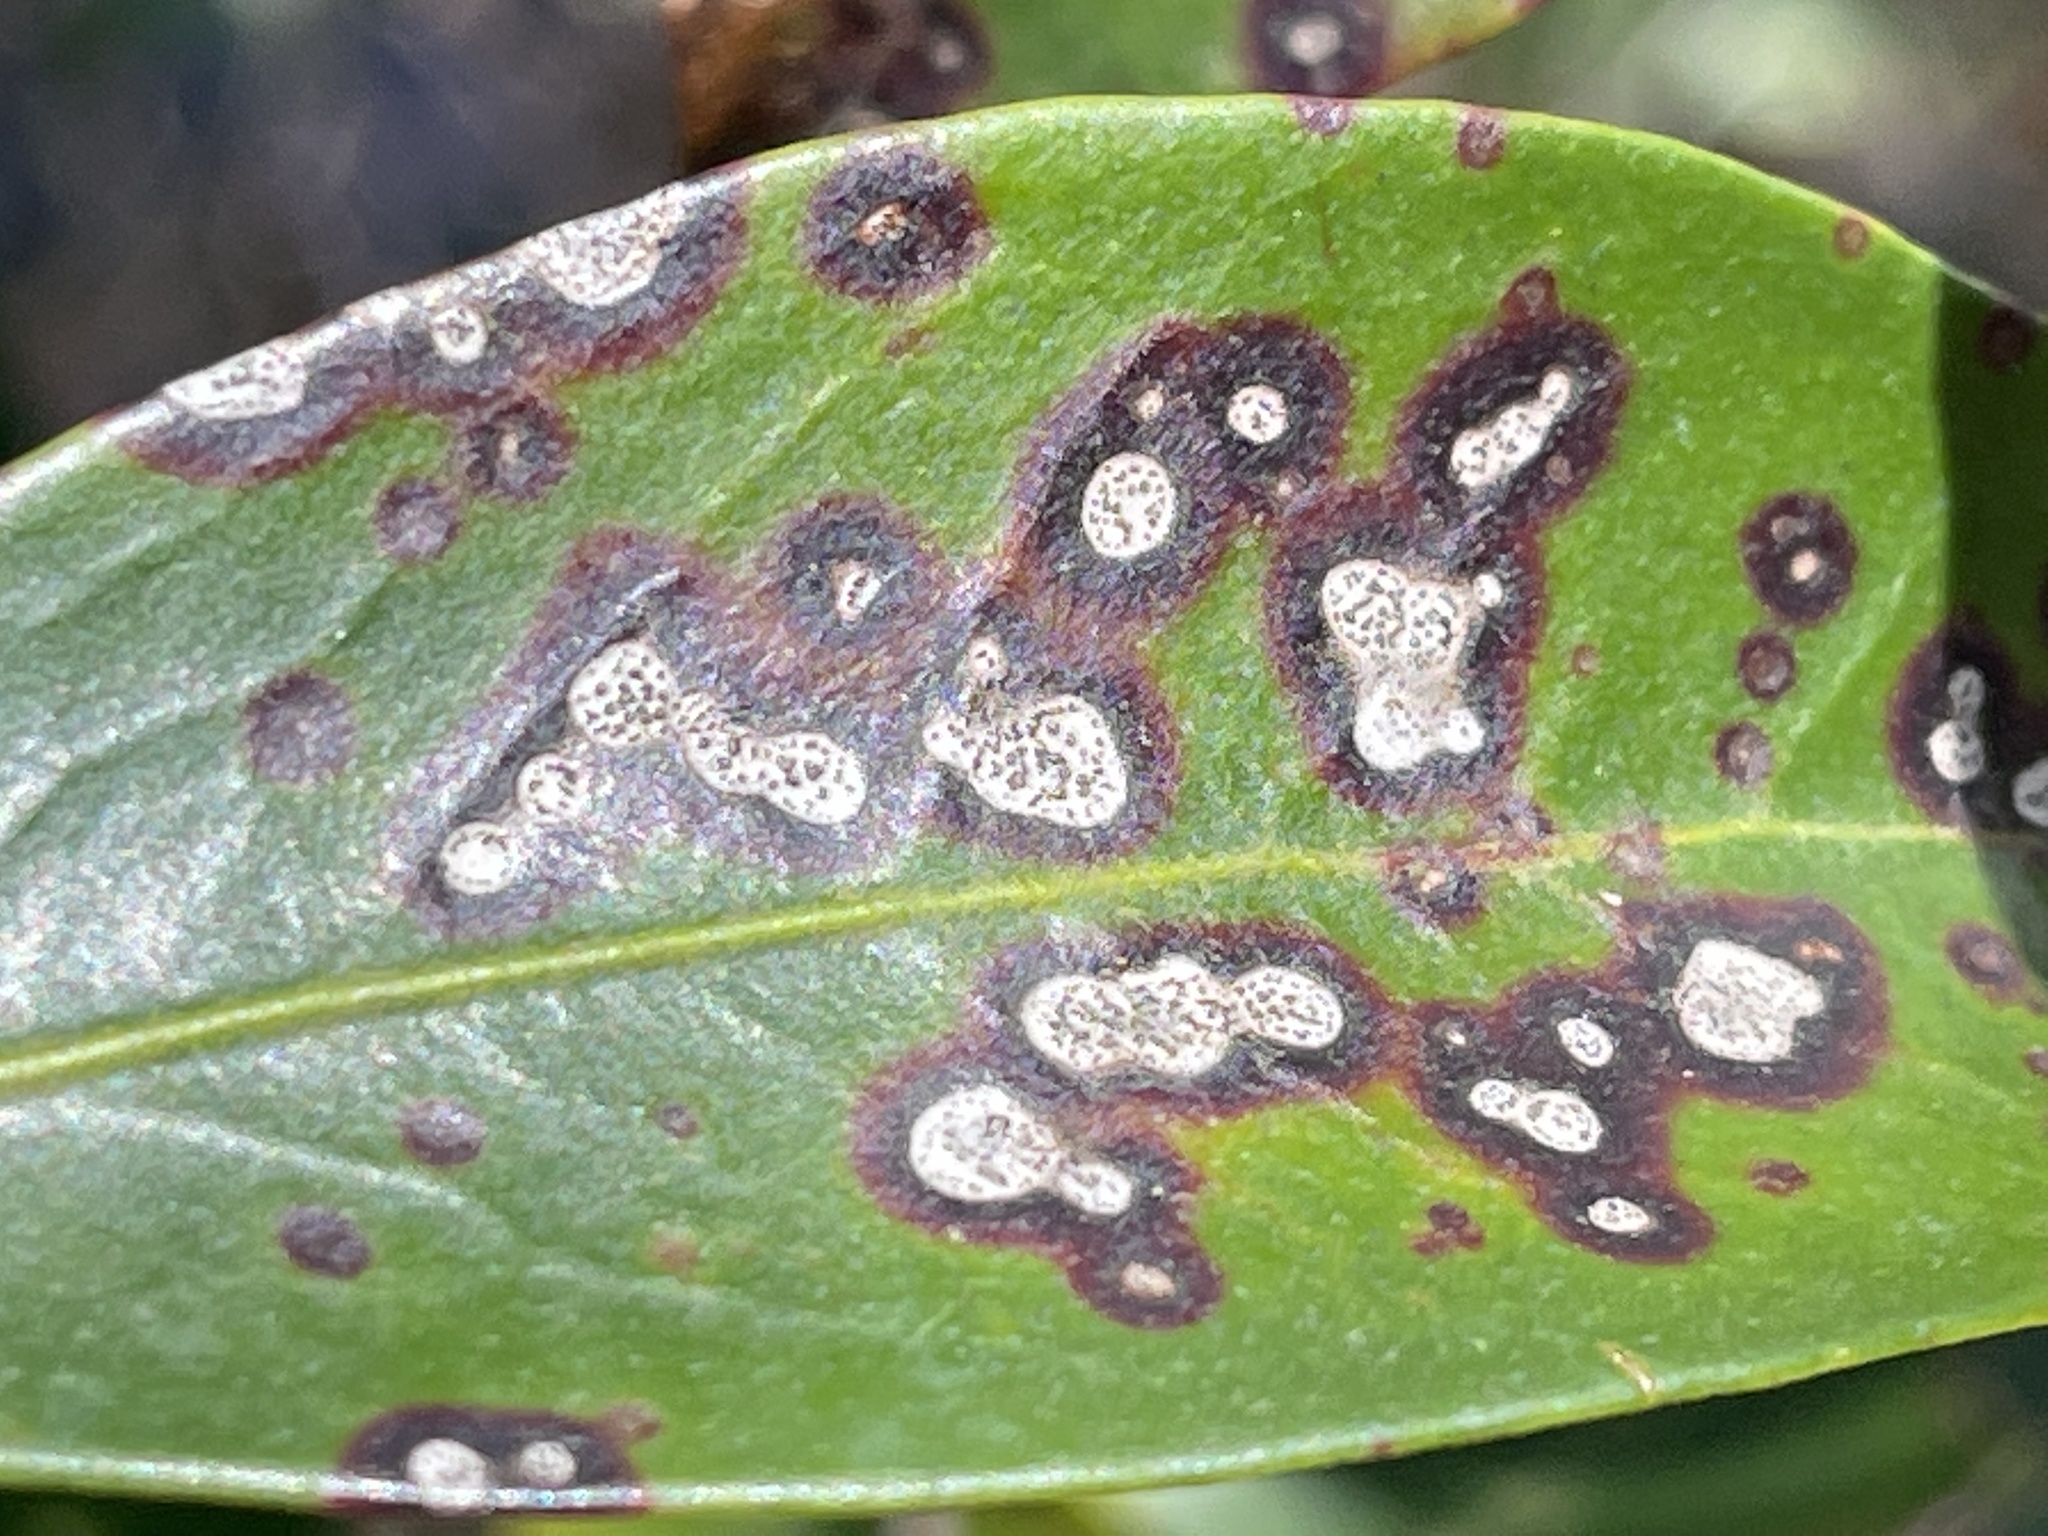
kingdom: Fungi
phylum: Ascomycota
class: Dothideomycetes
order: Mycosphaerellales
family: Mycosphaerellaceae
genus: Mycosphaerella
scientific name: Mycosphaerella colorata
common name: Mountain laurel leaf spot
